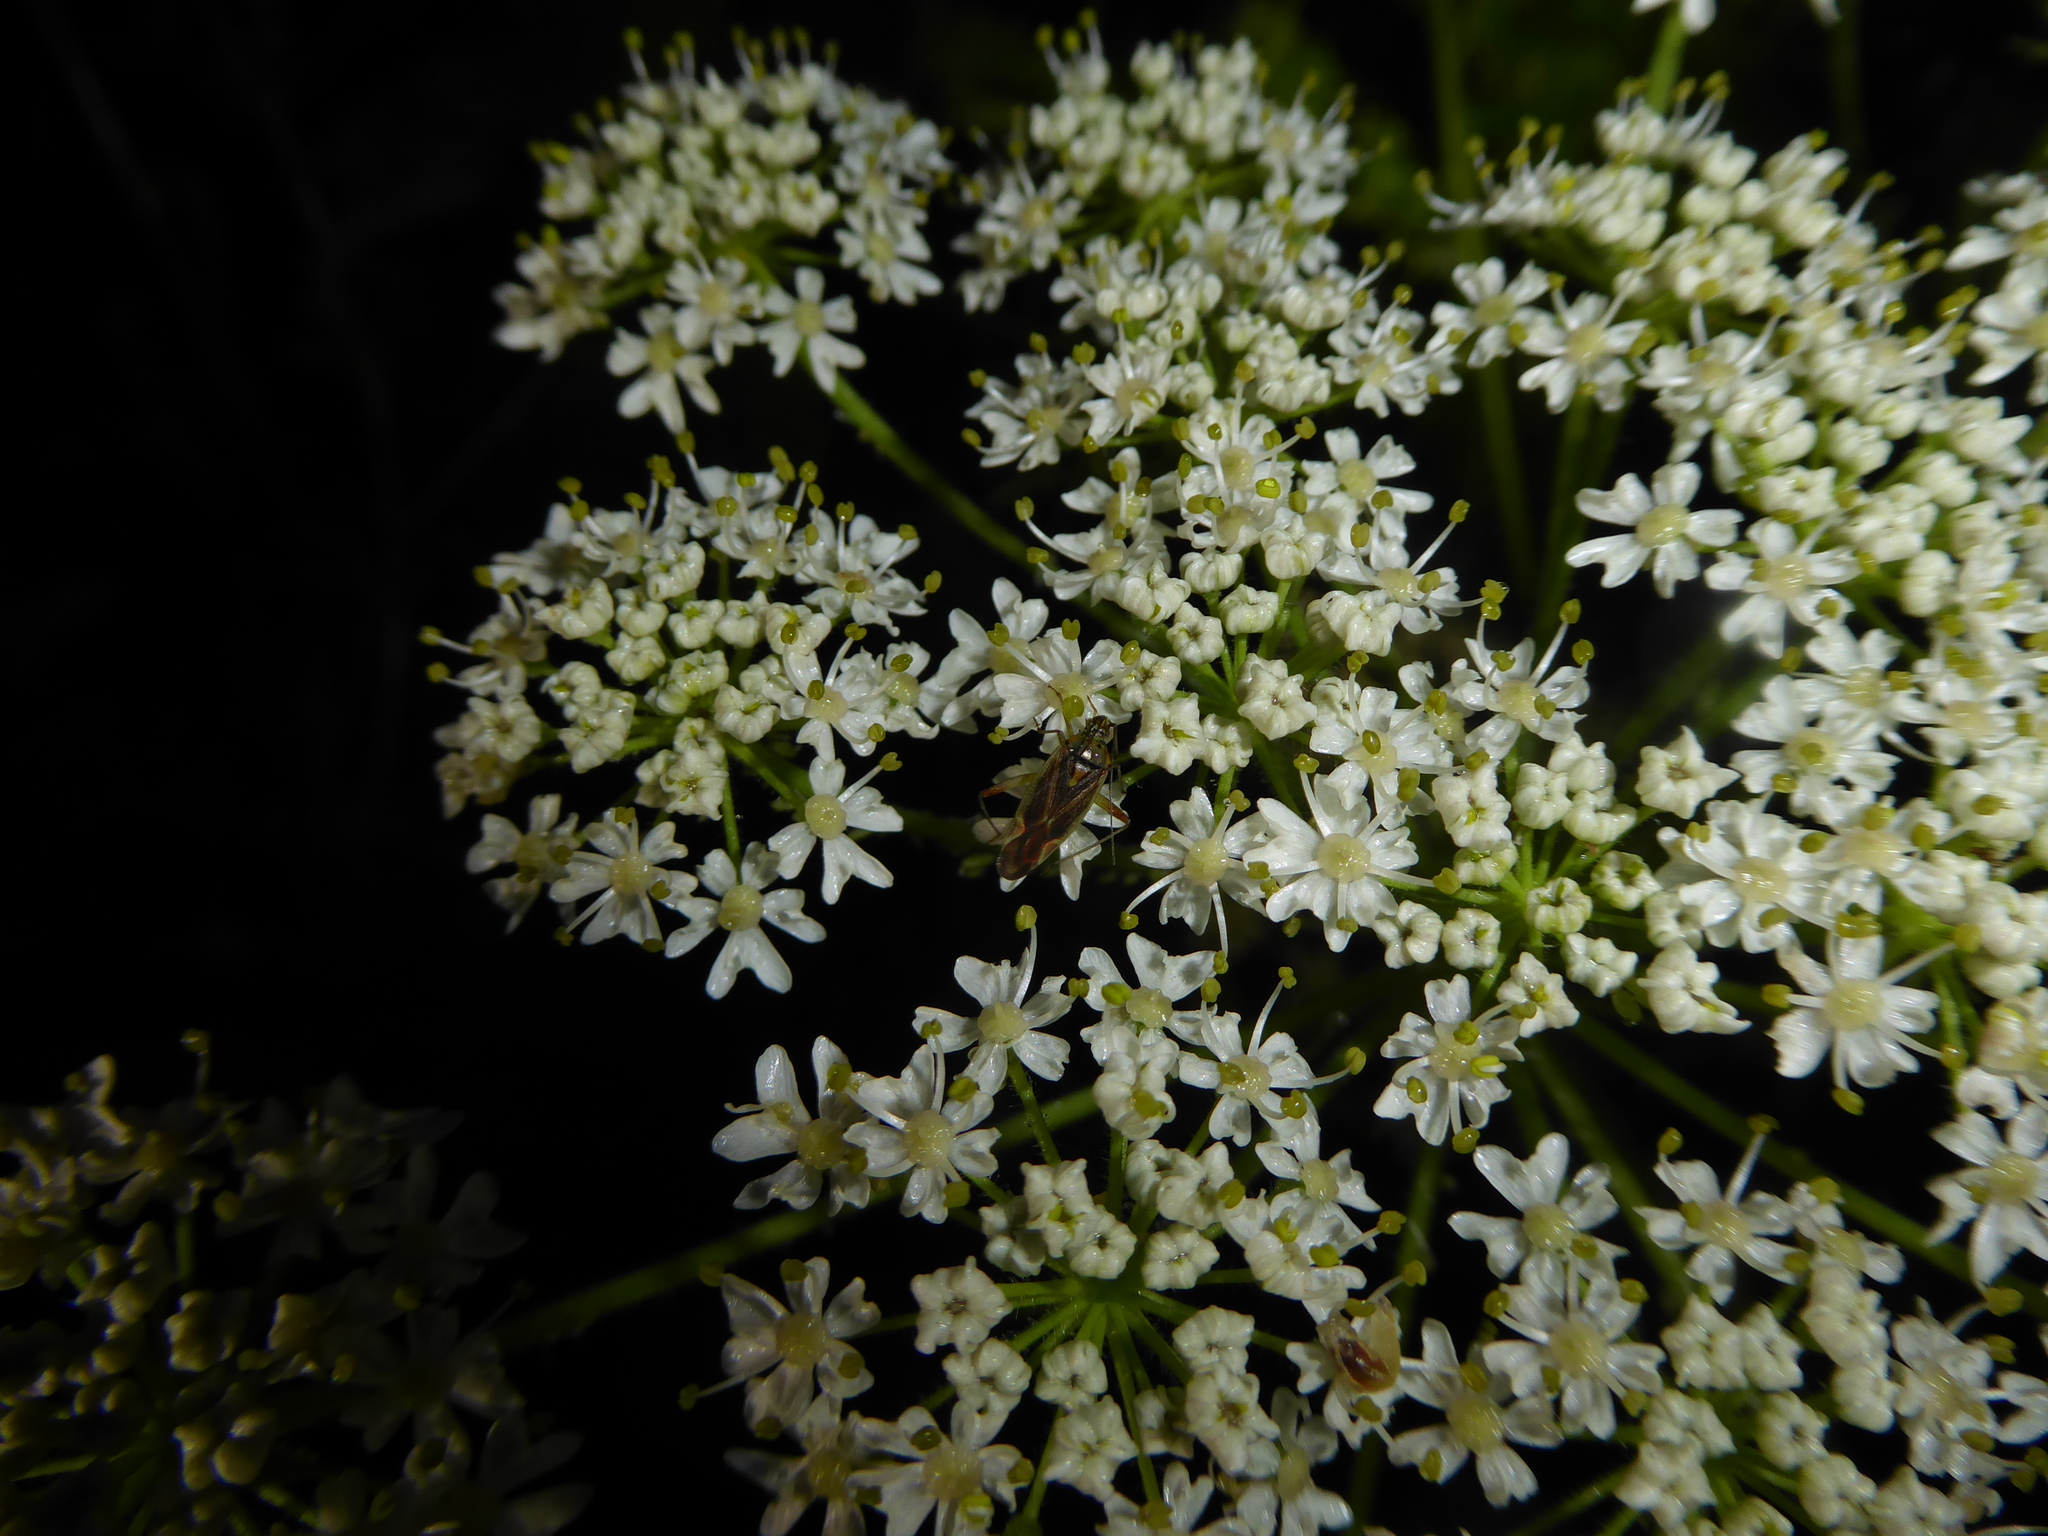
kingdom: Animalia
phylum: Arthropoda
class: Insecta
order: Hemiptera
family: Miridae
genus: Closterotomus
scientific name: Closterotomus trivialis
